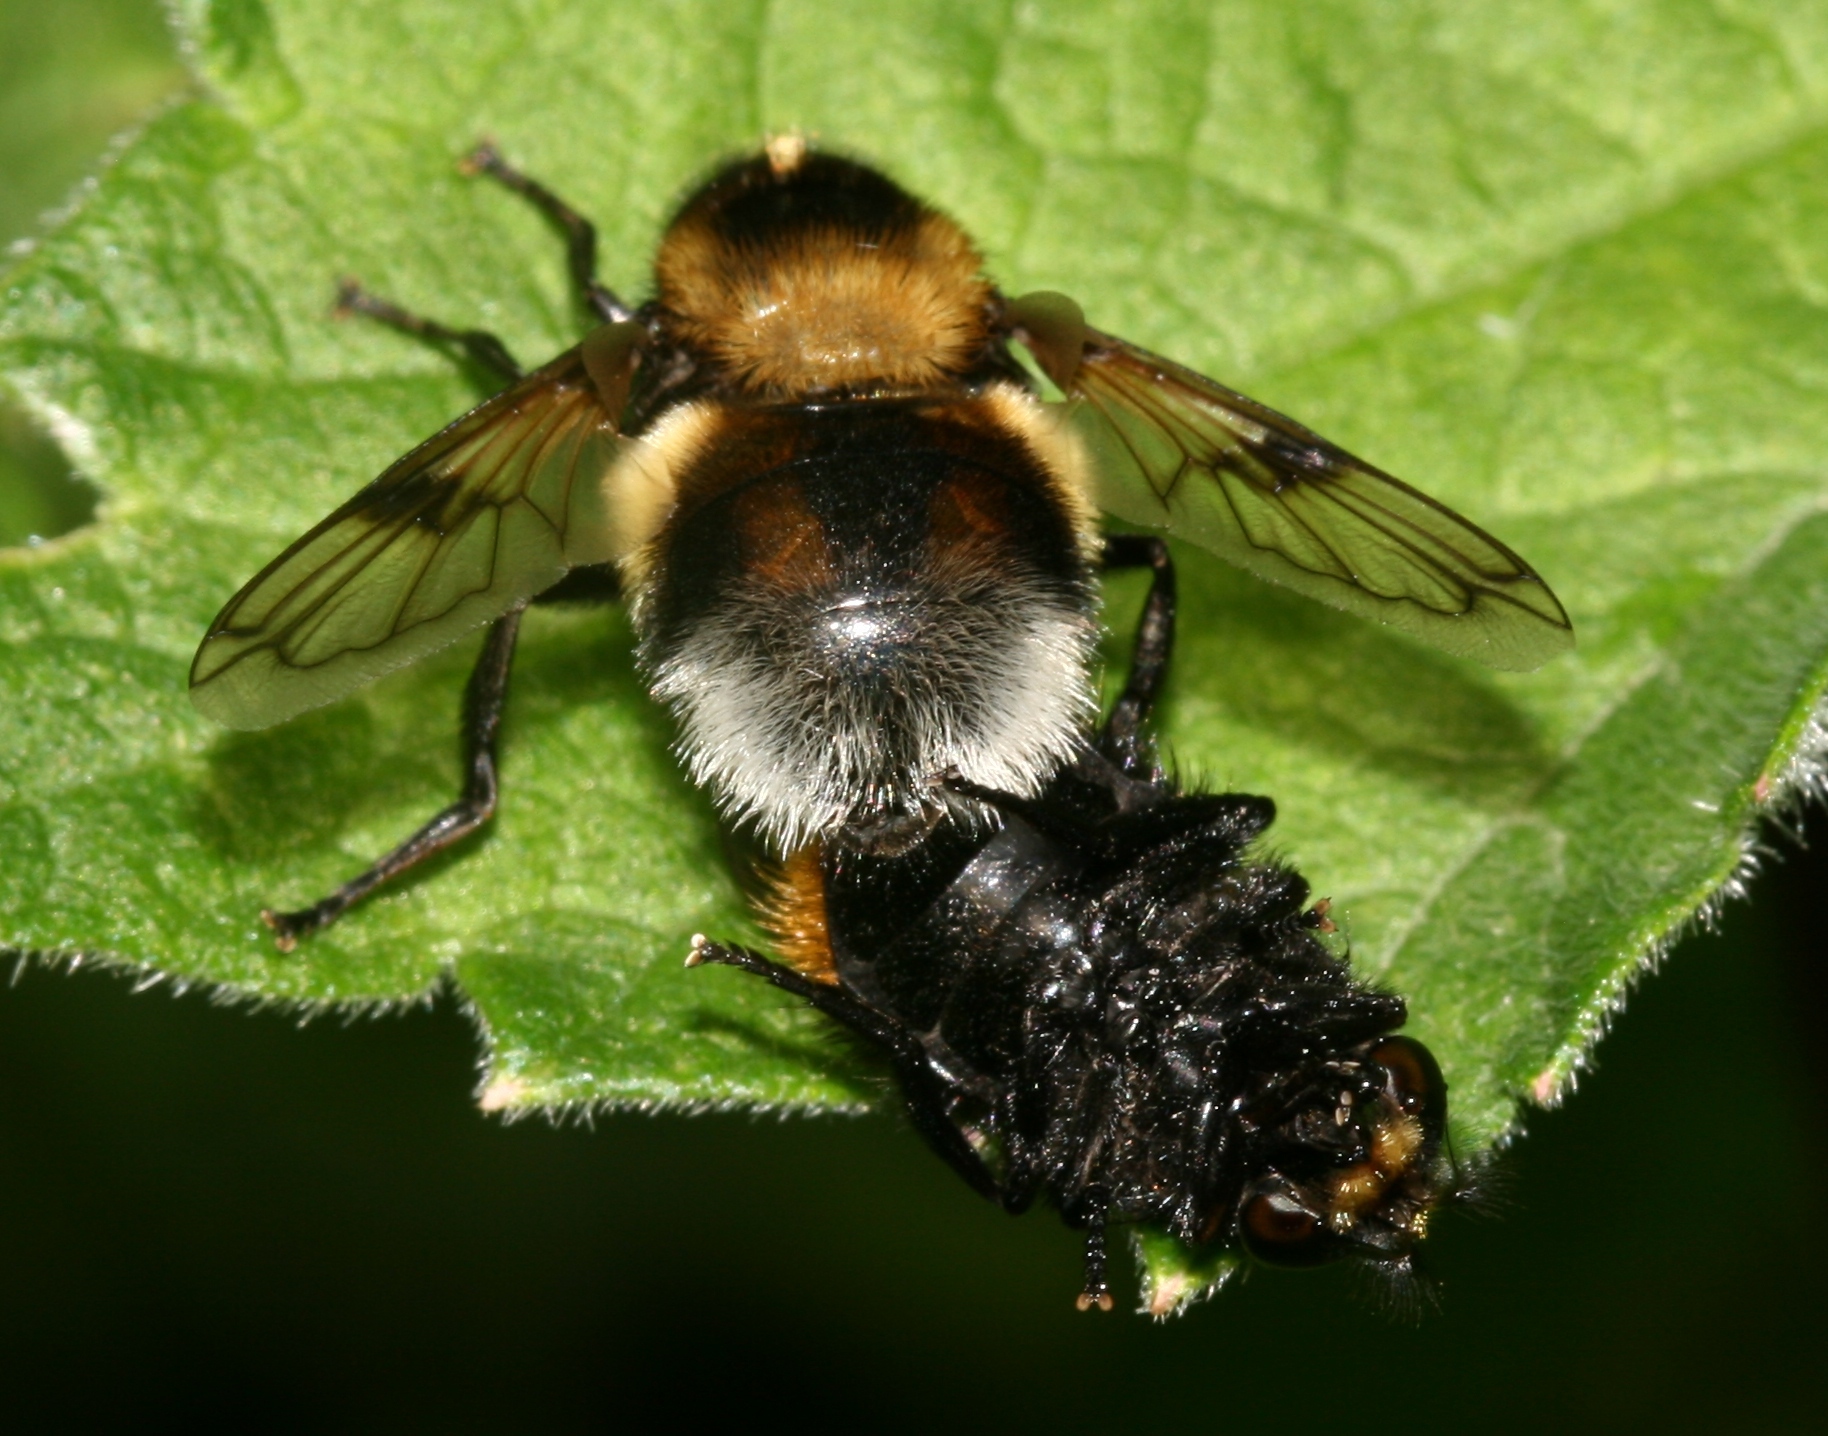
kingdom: Animalia
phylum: Arthropoda
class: Insecta
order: Diptera
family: Syrphidae
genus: Volucella
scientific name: Volucella bombylans
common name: Bumble bee hover fly
